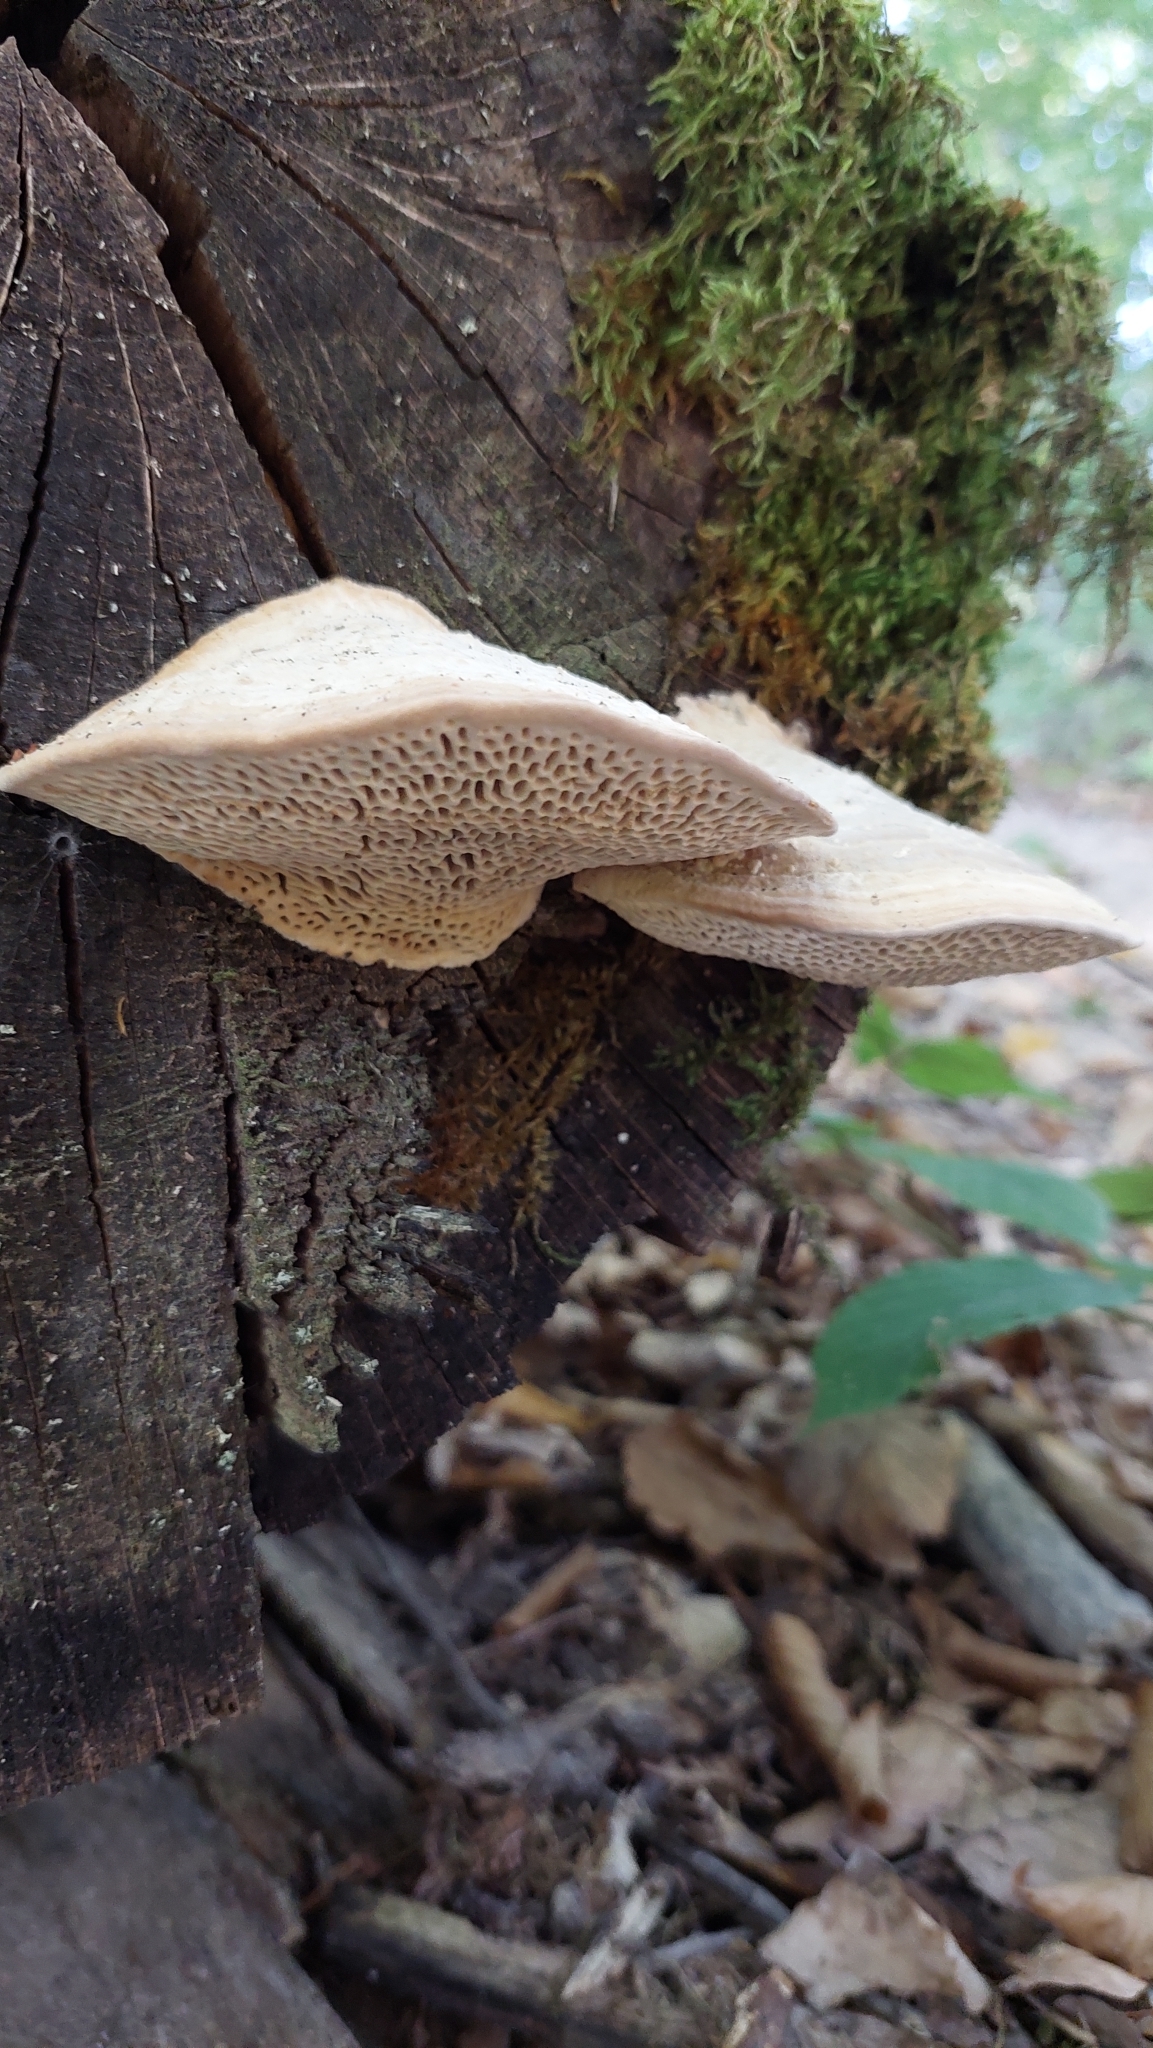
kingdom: Fungi
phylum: Basidiomycota
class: Agaricomycetes
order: Polyporales
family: Fomitopsidaceae
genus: Fomitopsis
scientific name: Fomitopsis
